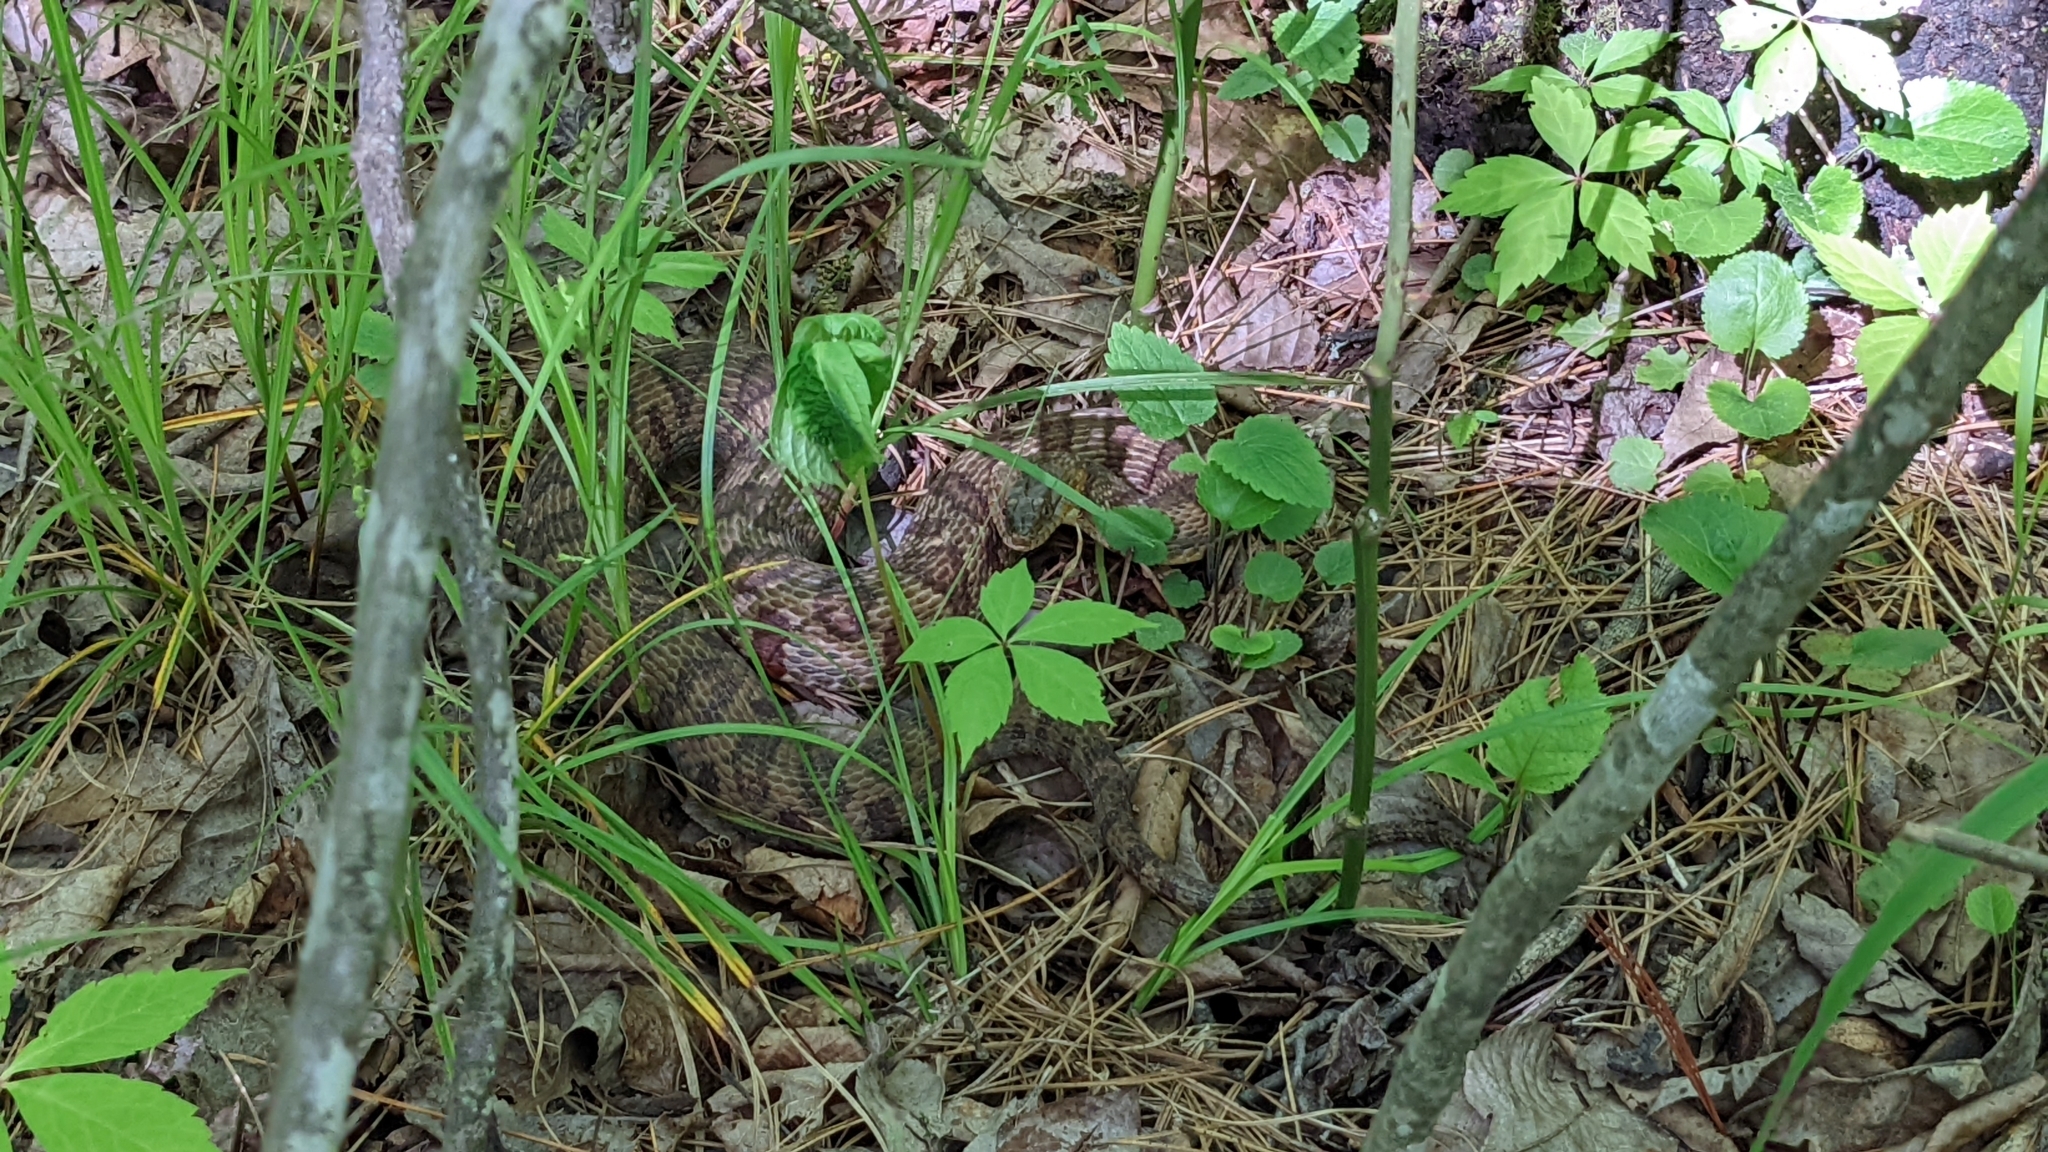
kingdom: Animalia
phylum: Chordata
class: Squamata
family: Colubridae
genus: Nerodia
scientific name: Nerodia sipedon
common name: Northern water snake
